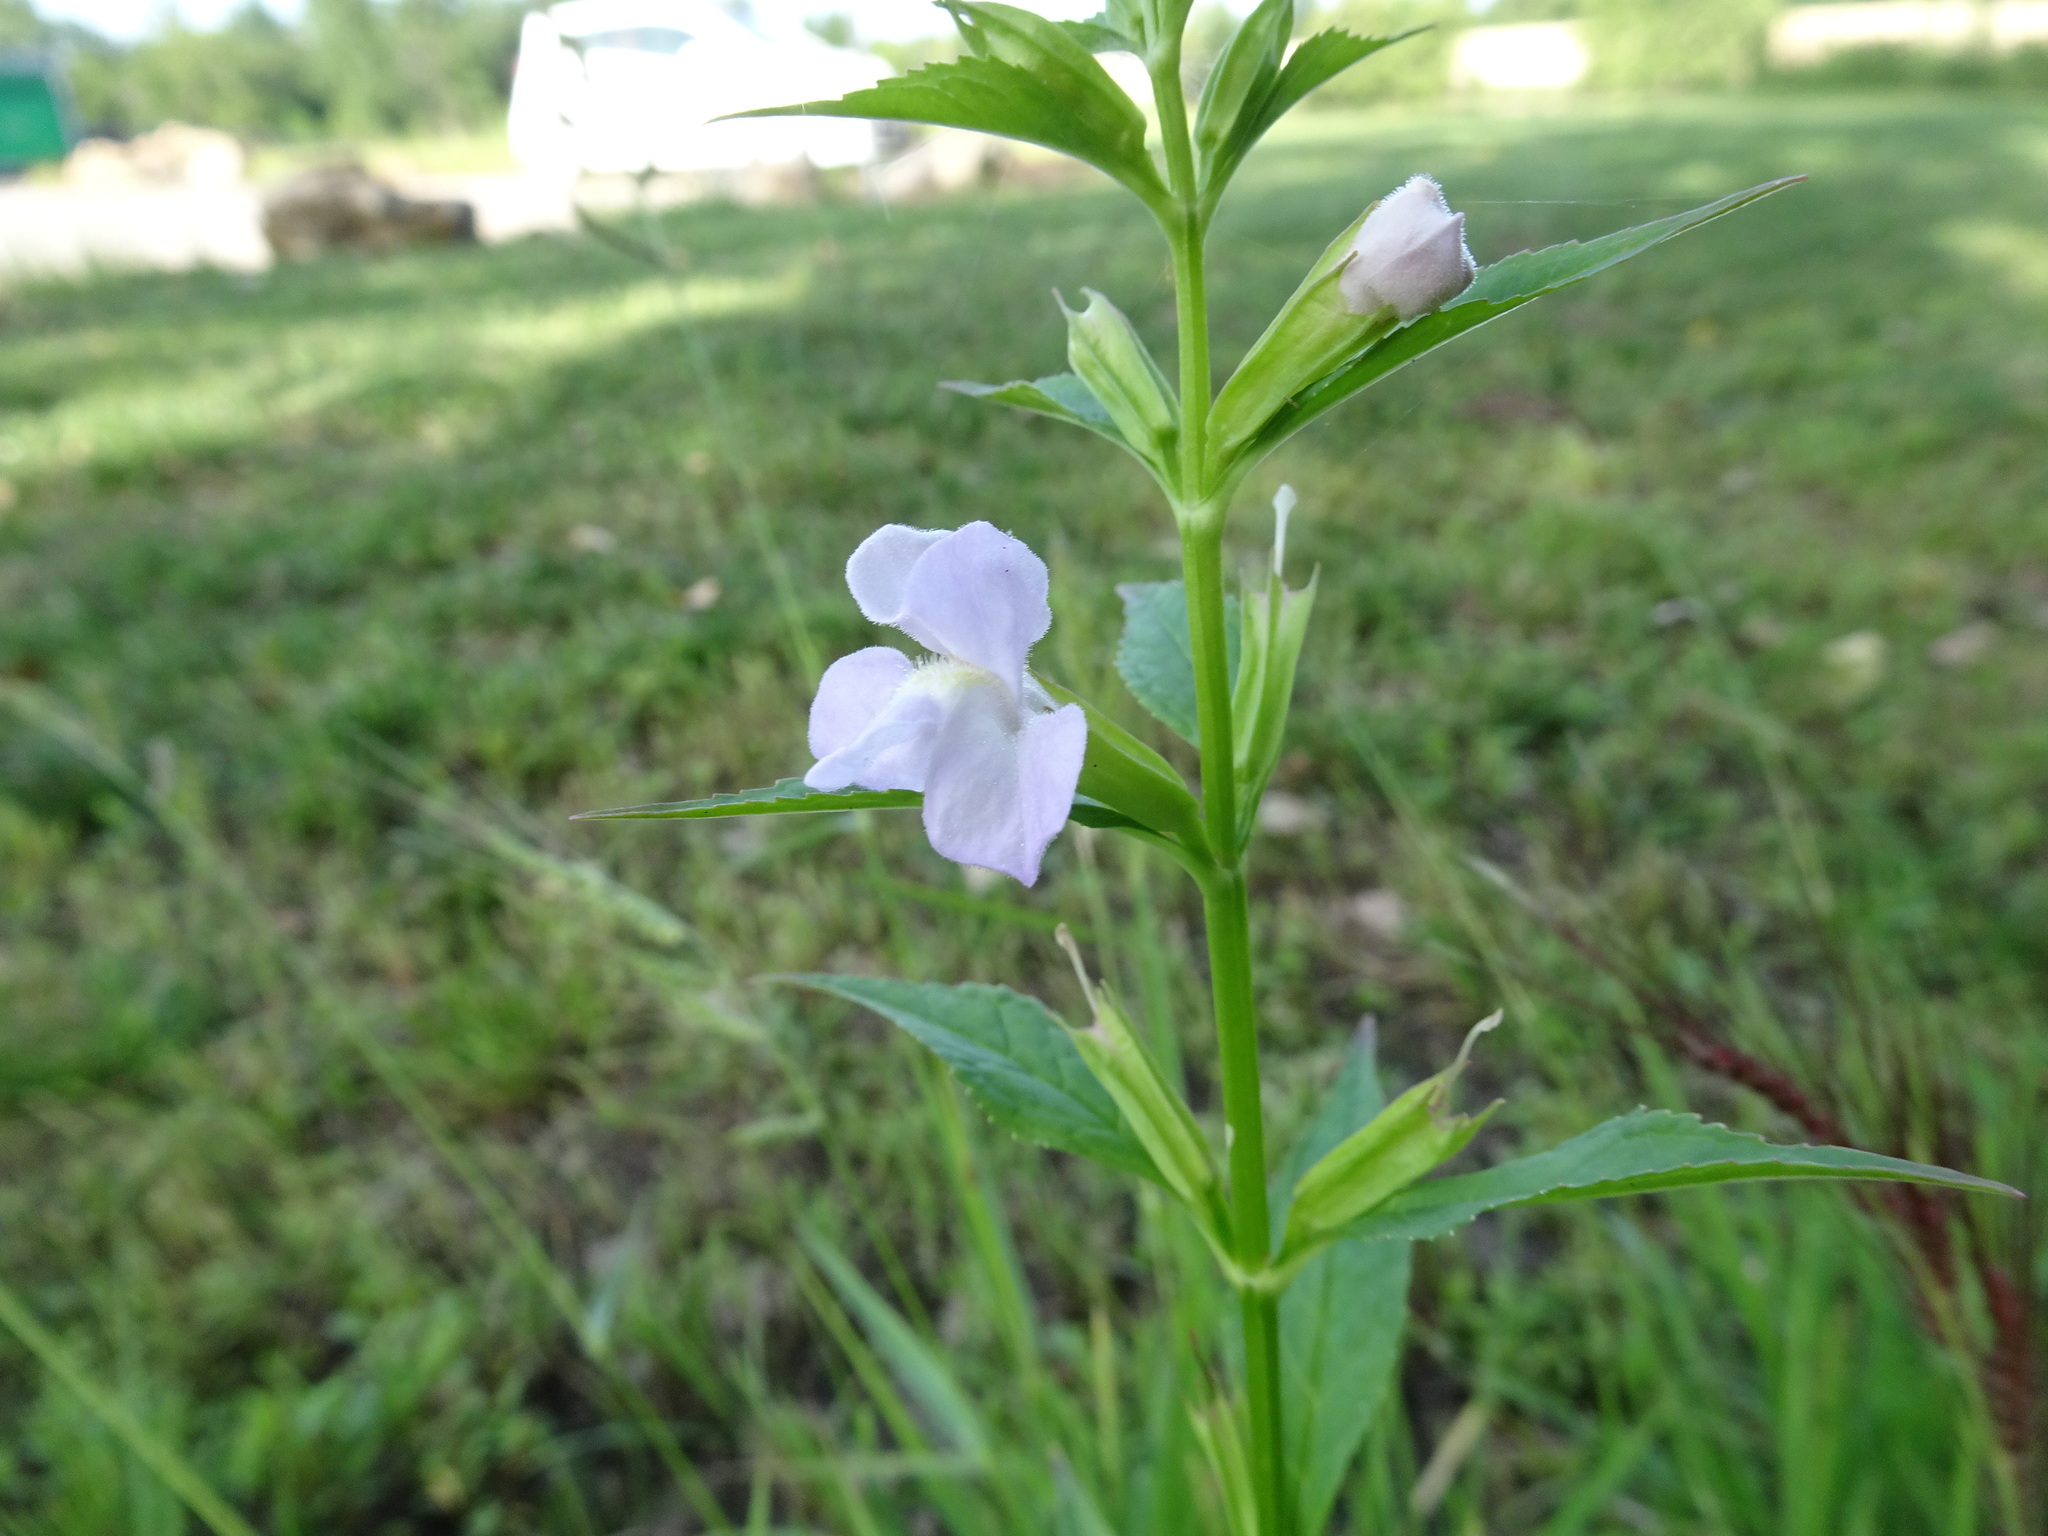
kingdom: Plantae
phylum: Tracheophyta
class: Magnoliopsida
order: Lamiales
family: Phrymaceae
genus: Mimulus
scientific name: Mimulus alatus
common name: Sharp-wing monkey-flower
